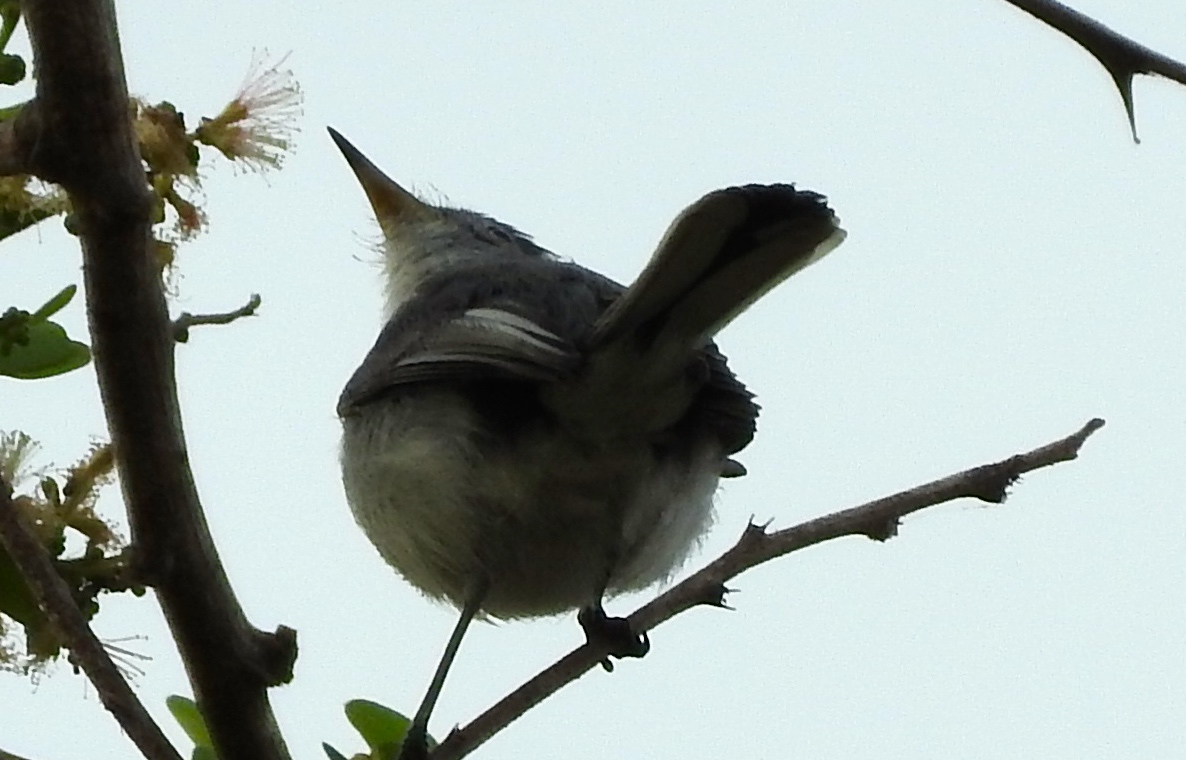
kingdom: Animalia
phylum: Chordata
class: Aves
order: Passeriformes
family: Polioptilidae
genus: Polioptila
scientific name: Polioptila caerulea
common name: Blue-gray gnatcatcher
